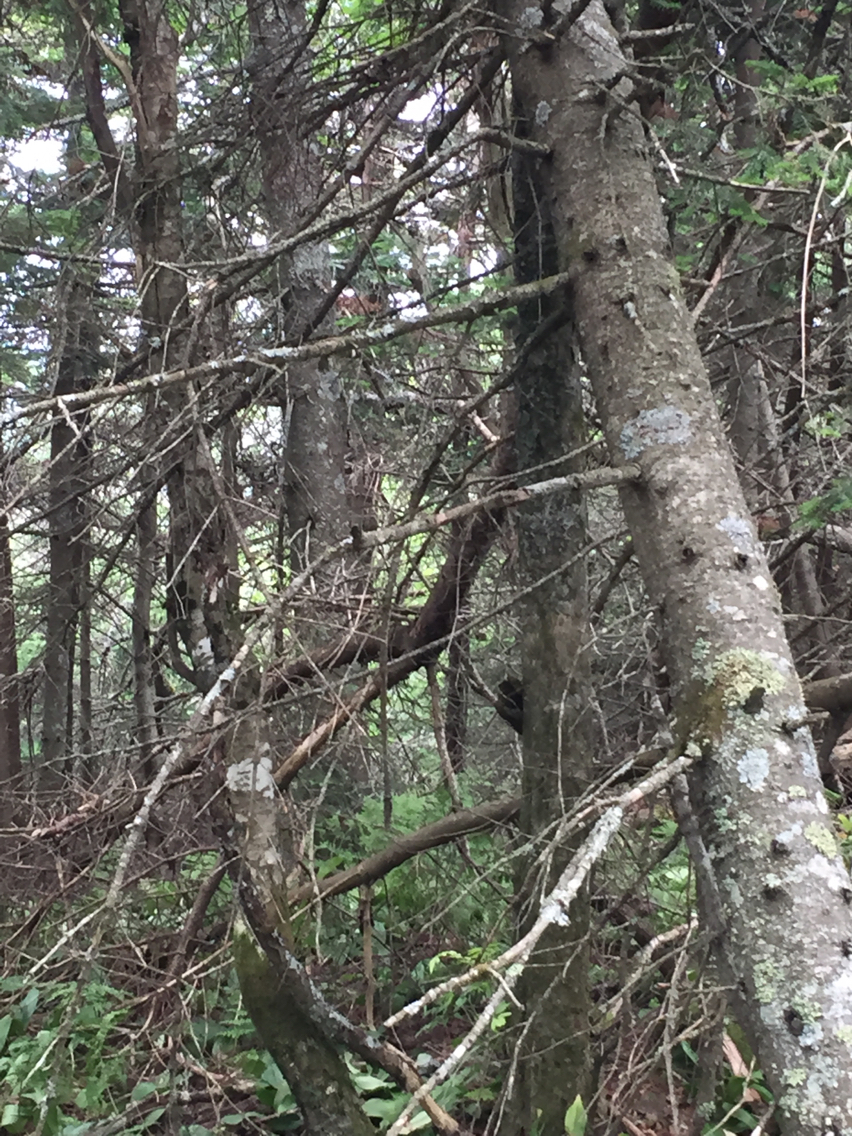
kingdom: Plantae
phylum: Tracheophyta
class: Pinopsida
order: Pinales
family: Pinaceae
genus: Abies
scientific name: Abies balsamea
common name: Balsam fir
